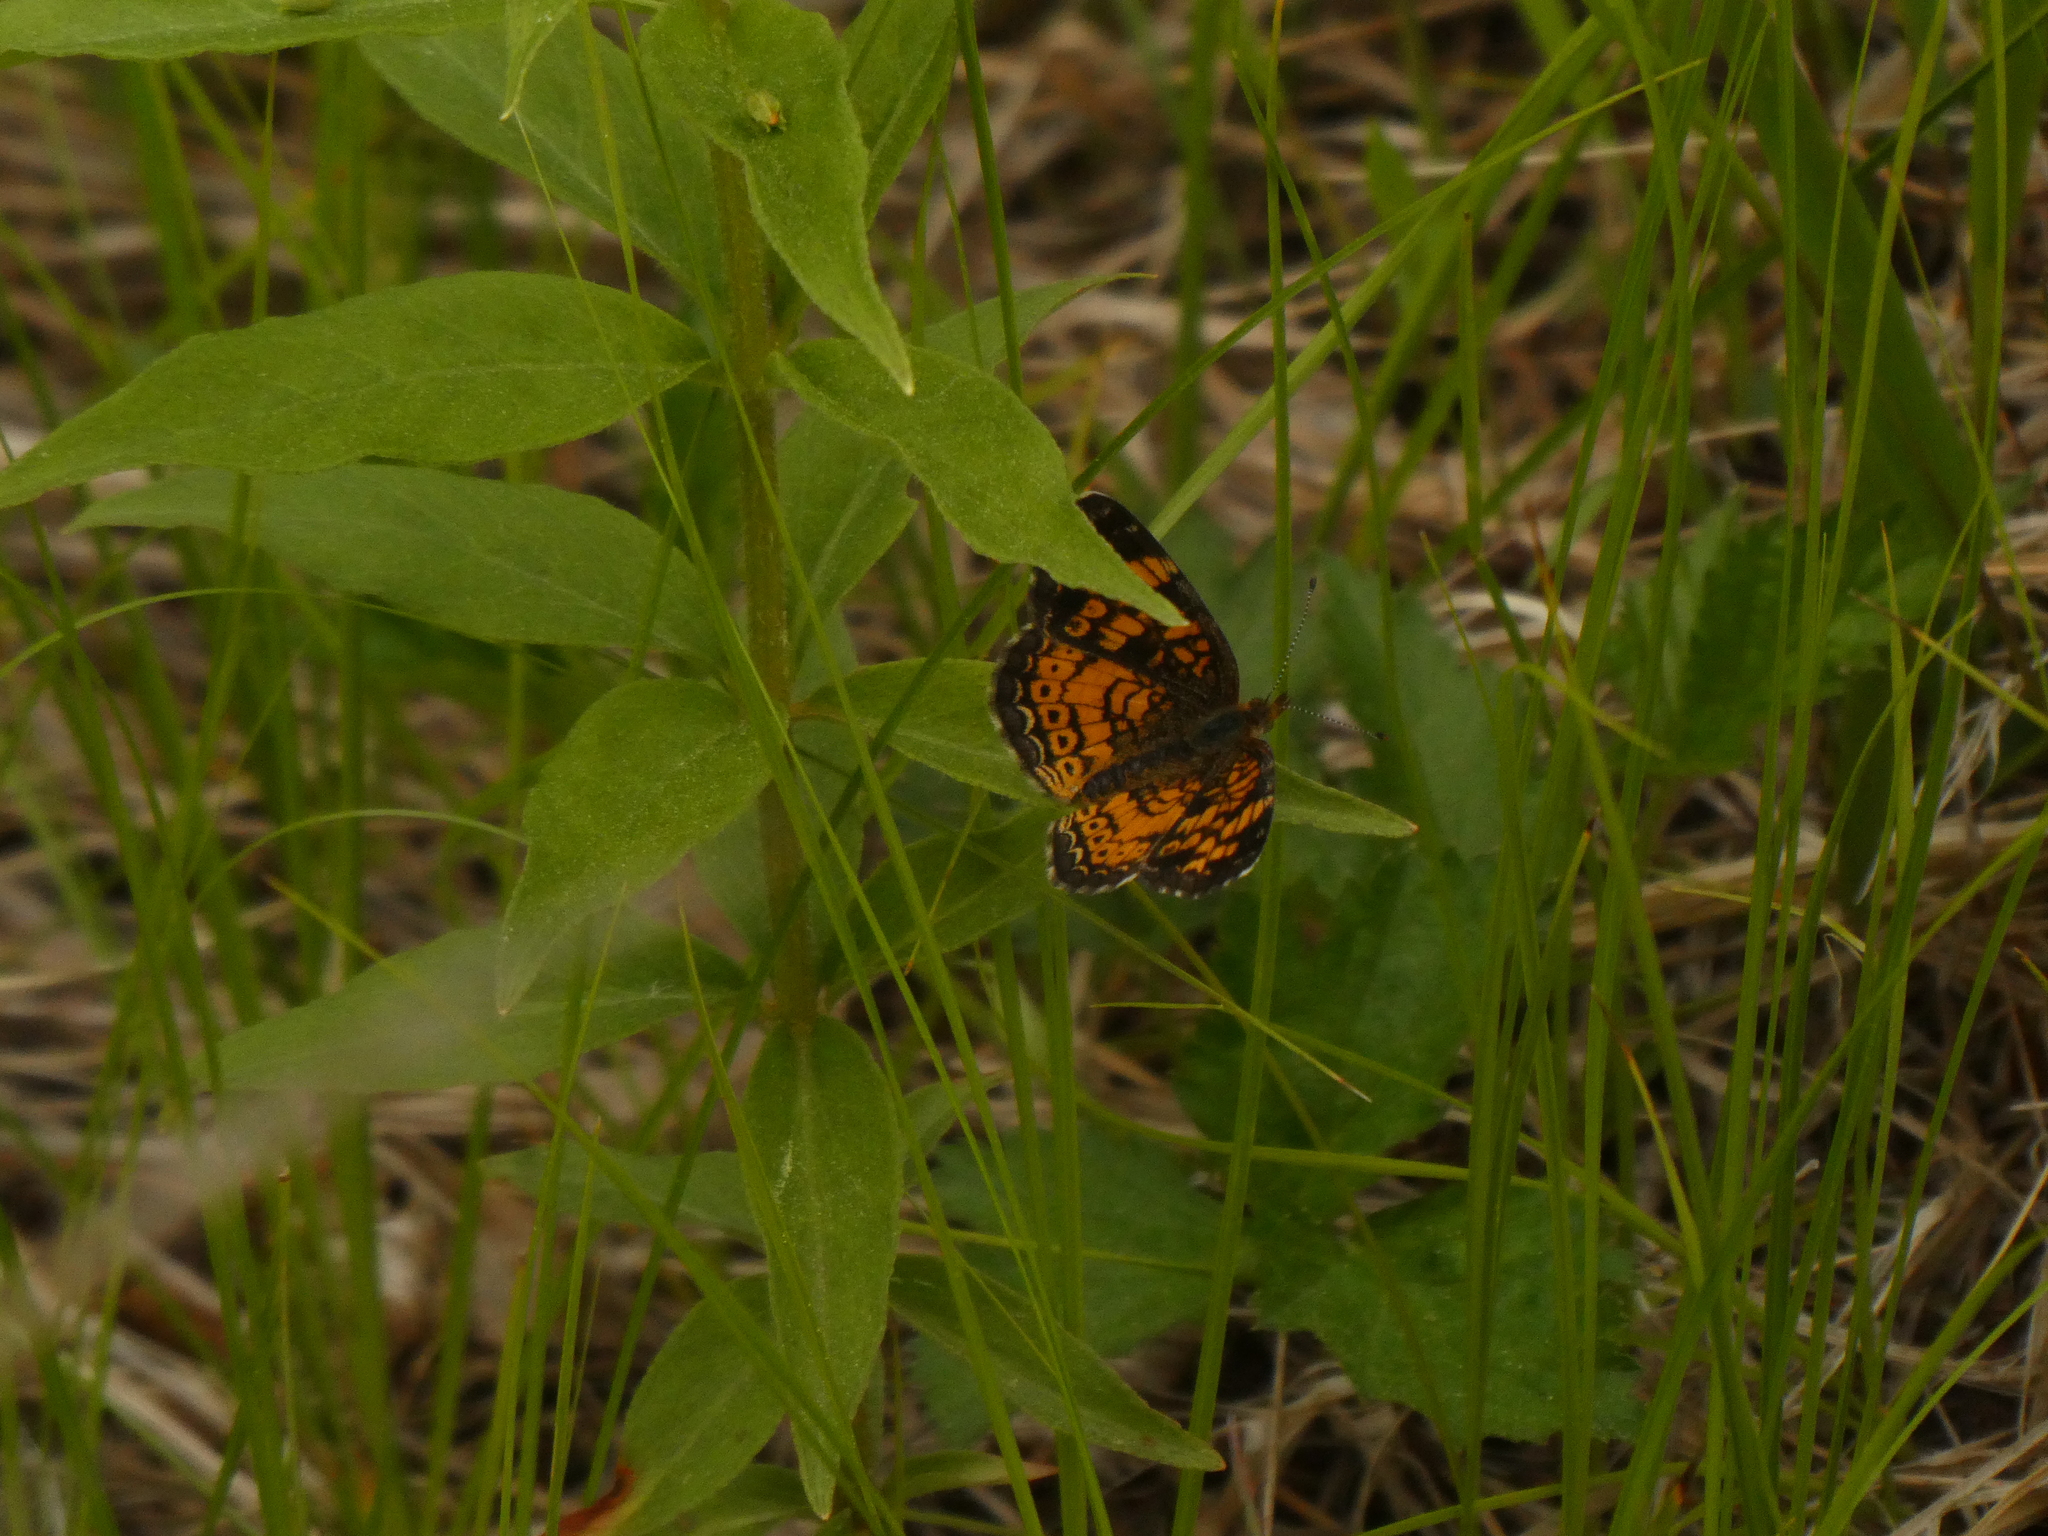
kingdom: Animalia
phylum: Arthropoda
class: Insecta
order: Lepidoptera
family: Nymphalidae
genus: Phyciodes
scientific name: Phyciodes tharos
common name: Pearl crescent
